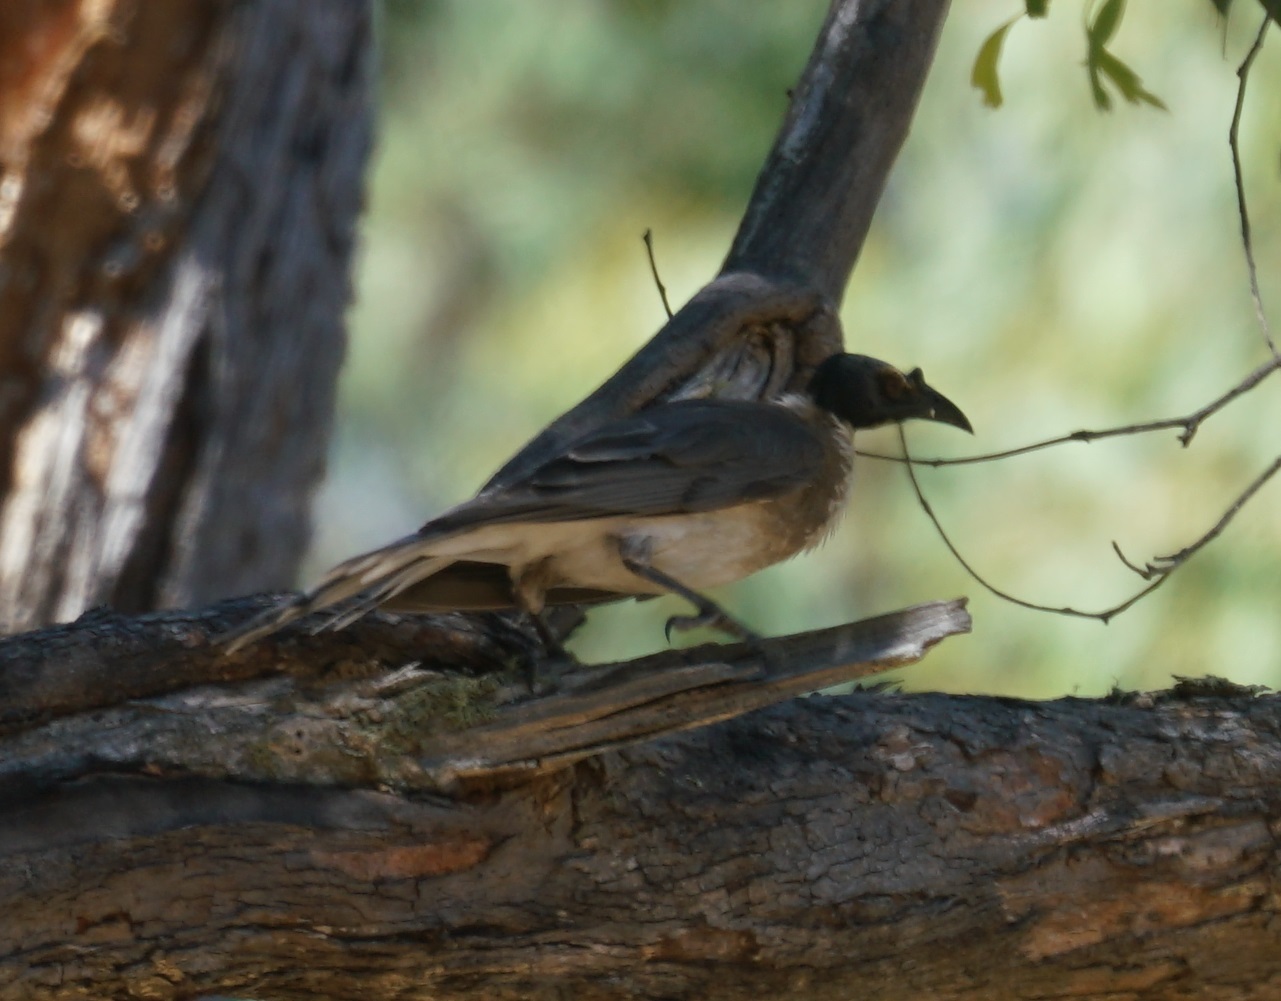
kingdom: Animalia
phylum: Chordata
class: Aves
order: Passeriformes
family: Meliphagidae
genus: Philemon
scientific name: Philemon corniculatus
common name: Noisy friarbird
